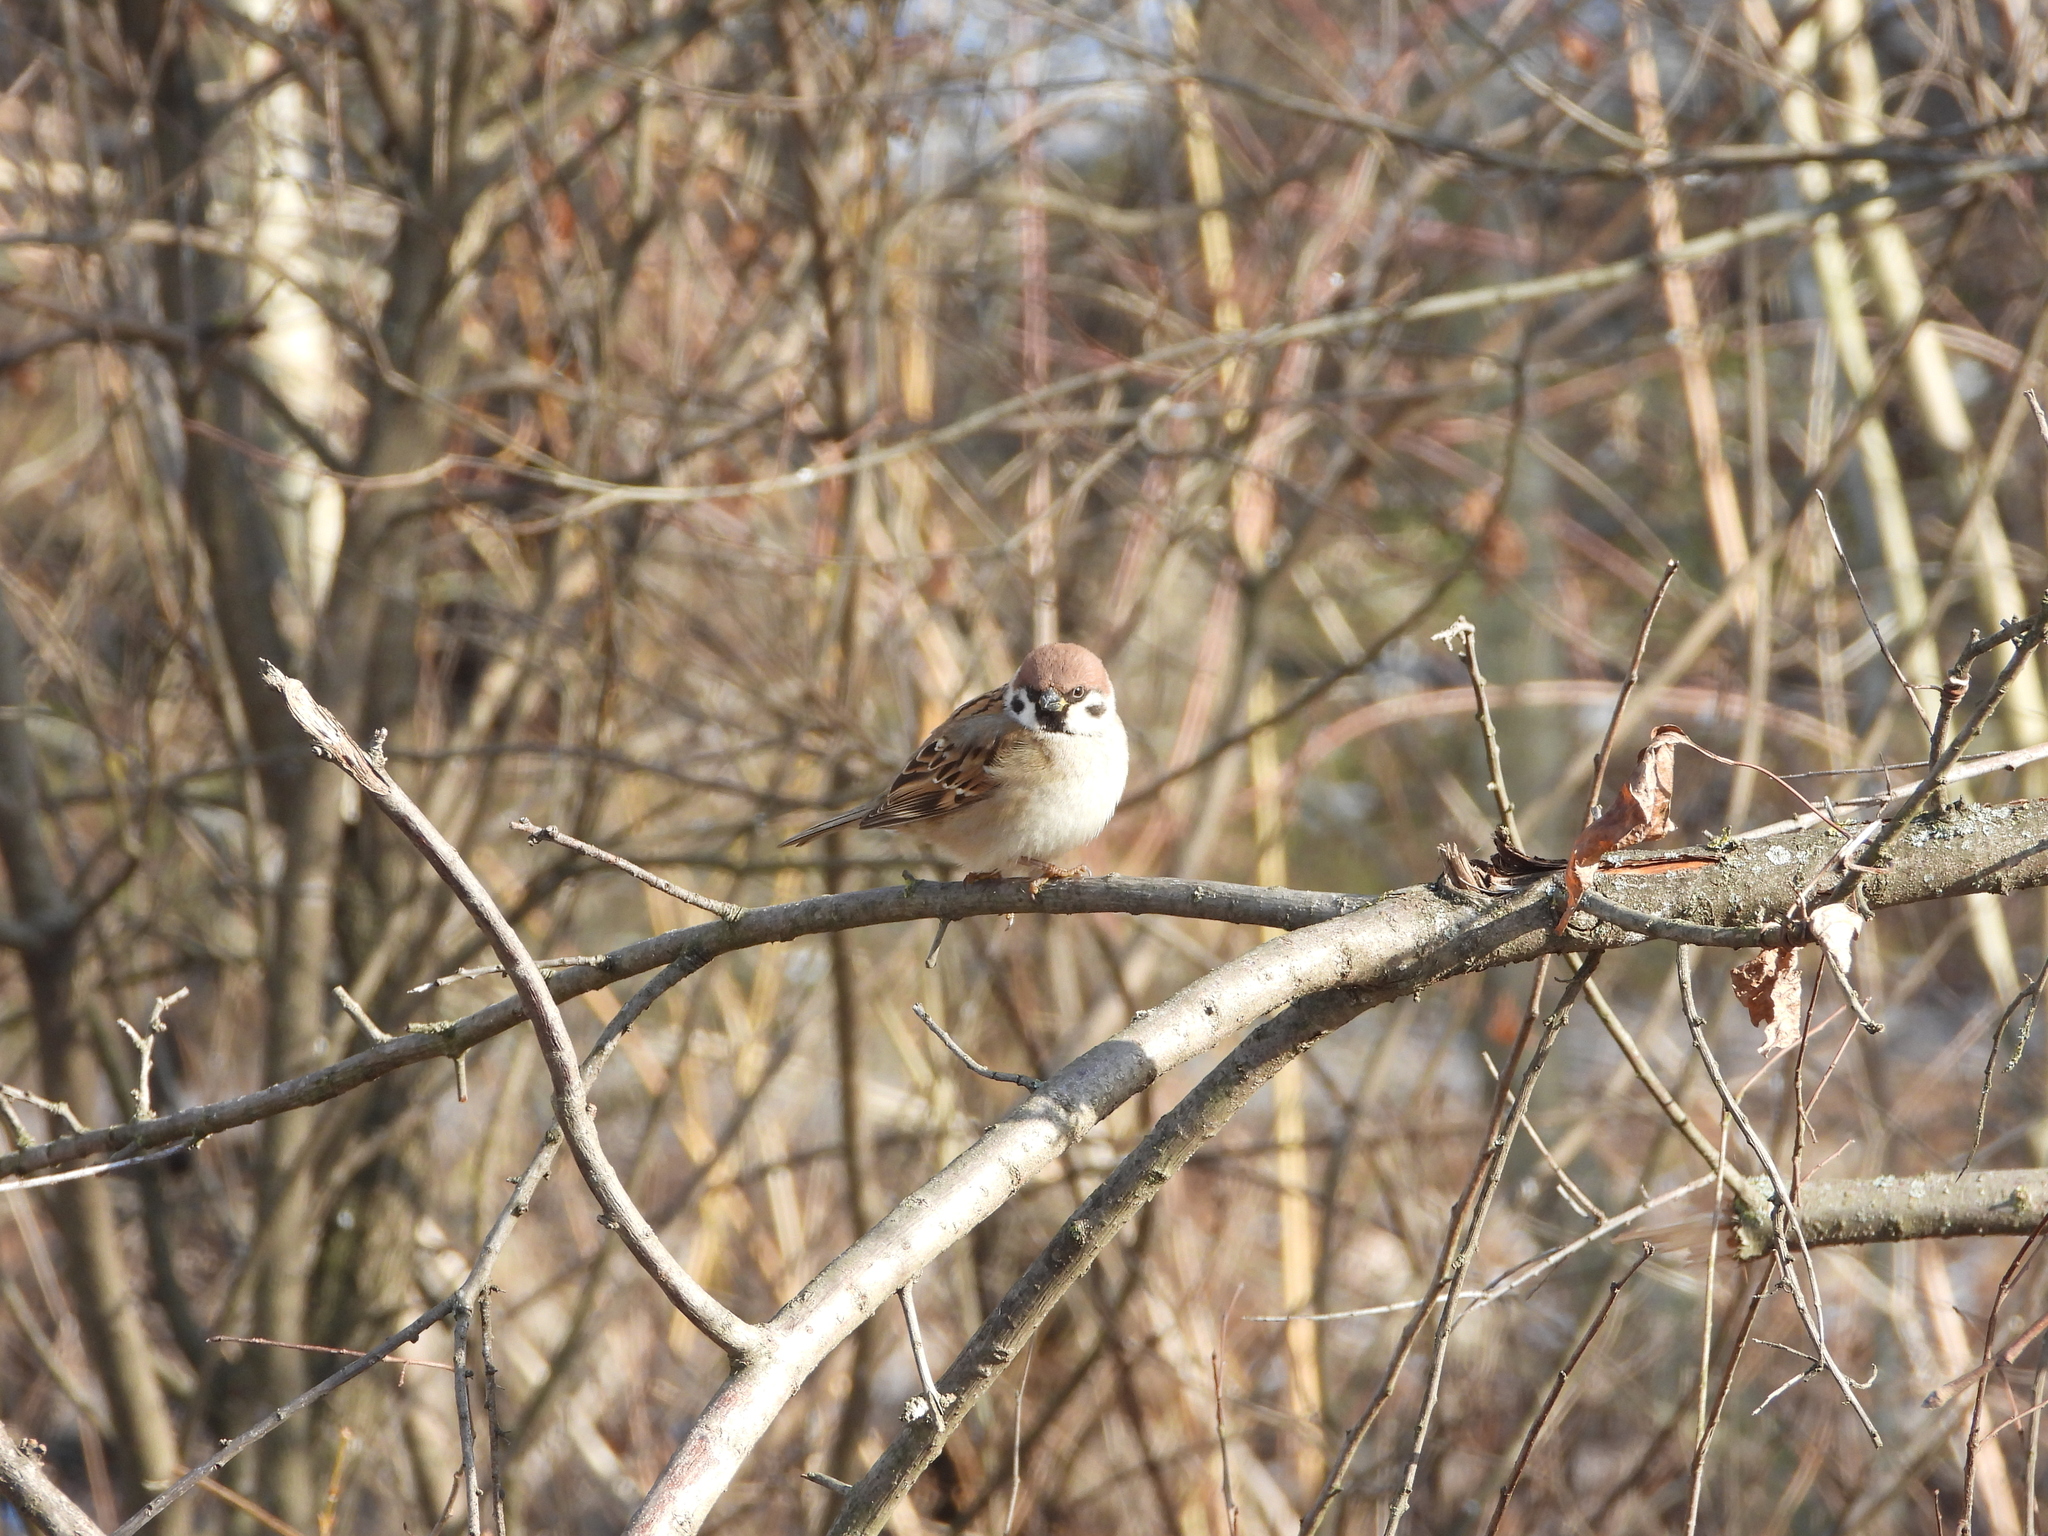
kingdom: Animalia
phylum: Chordata
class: Aves
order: Passeriformes
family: Passeridae
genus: Passer
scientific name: Passer montanus
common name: Eurasian tree sparrow
